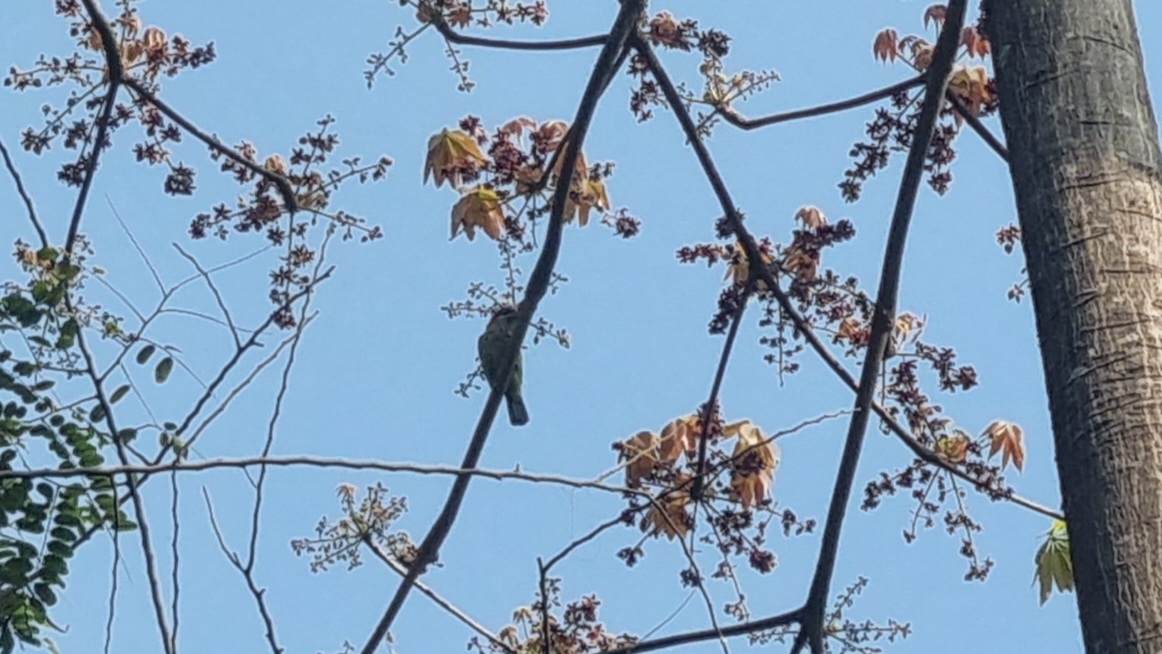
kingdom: Animalia
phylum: Chordata
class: Aves
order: Piciformes
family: Megalaimidae
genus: Psilopogon
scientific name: Psilopogon viridis
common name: White-cheeked barbet
